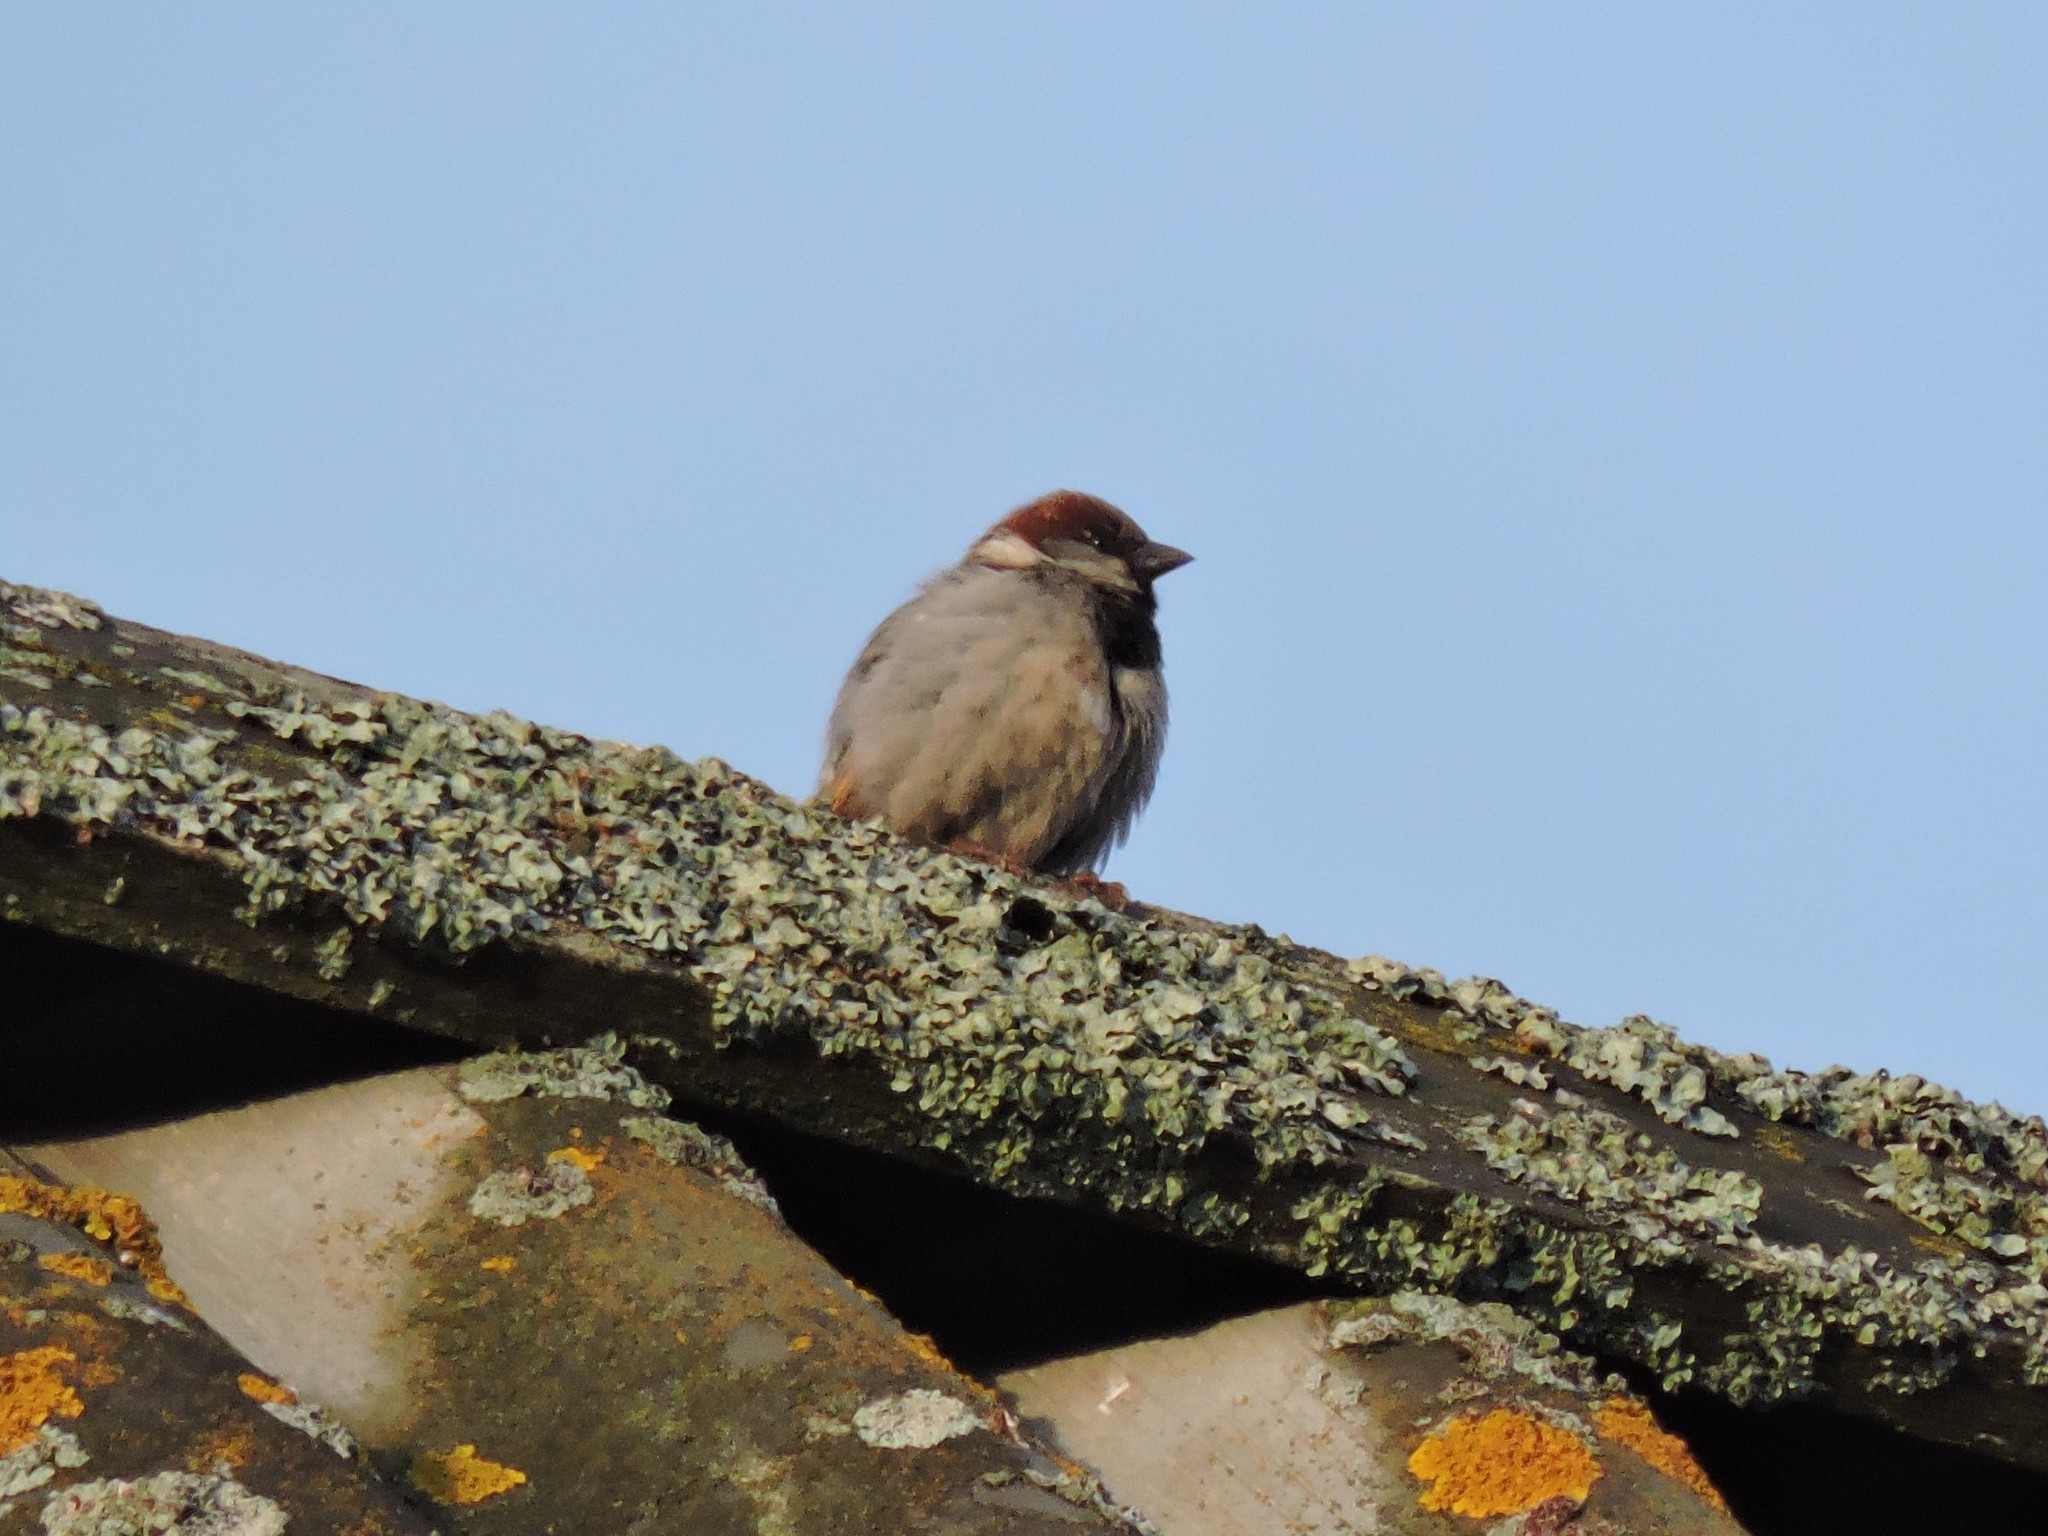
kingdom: Animalia
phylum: Chordata
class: Aves
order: Passeriformes
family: Passeridae
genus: Passer
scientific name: Passer domesticus
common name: House sparrow
